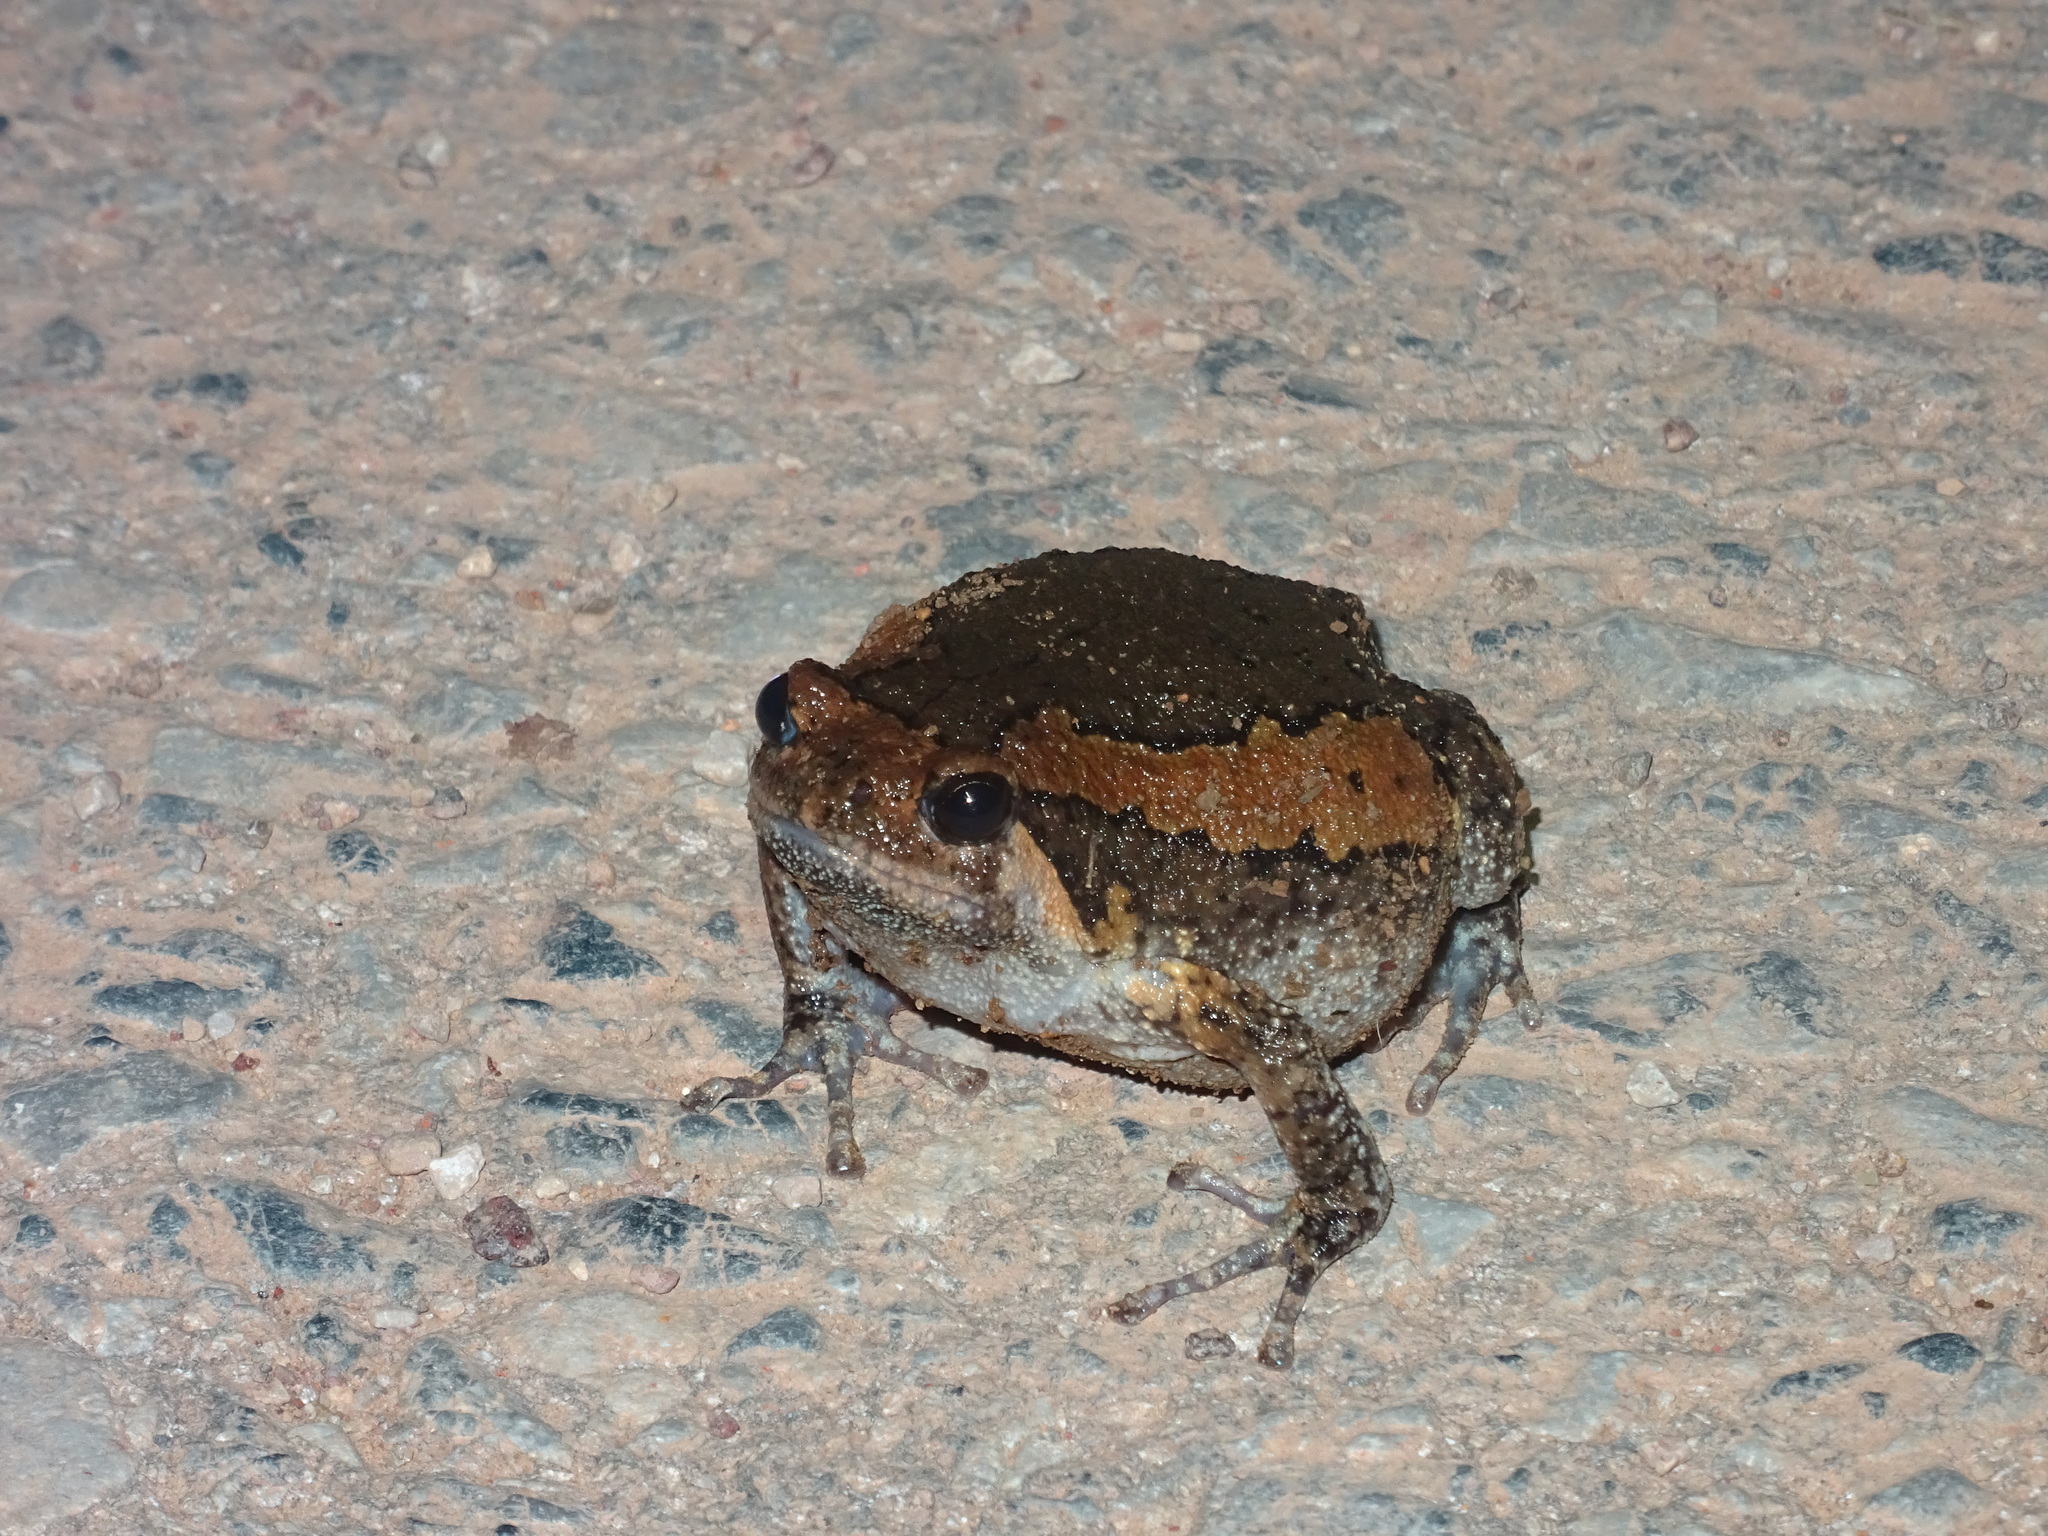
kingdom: Animalia
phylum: Chordata
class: Amphibia
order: Anura
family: Microhylidae
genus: Kaloula
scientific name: Kaloula pulchra
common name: Common,banded bullfrog
